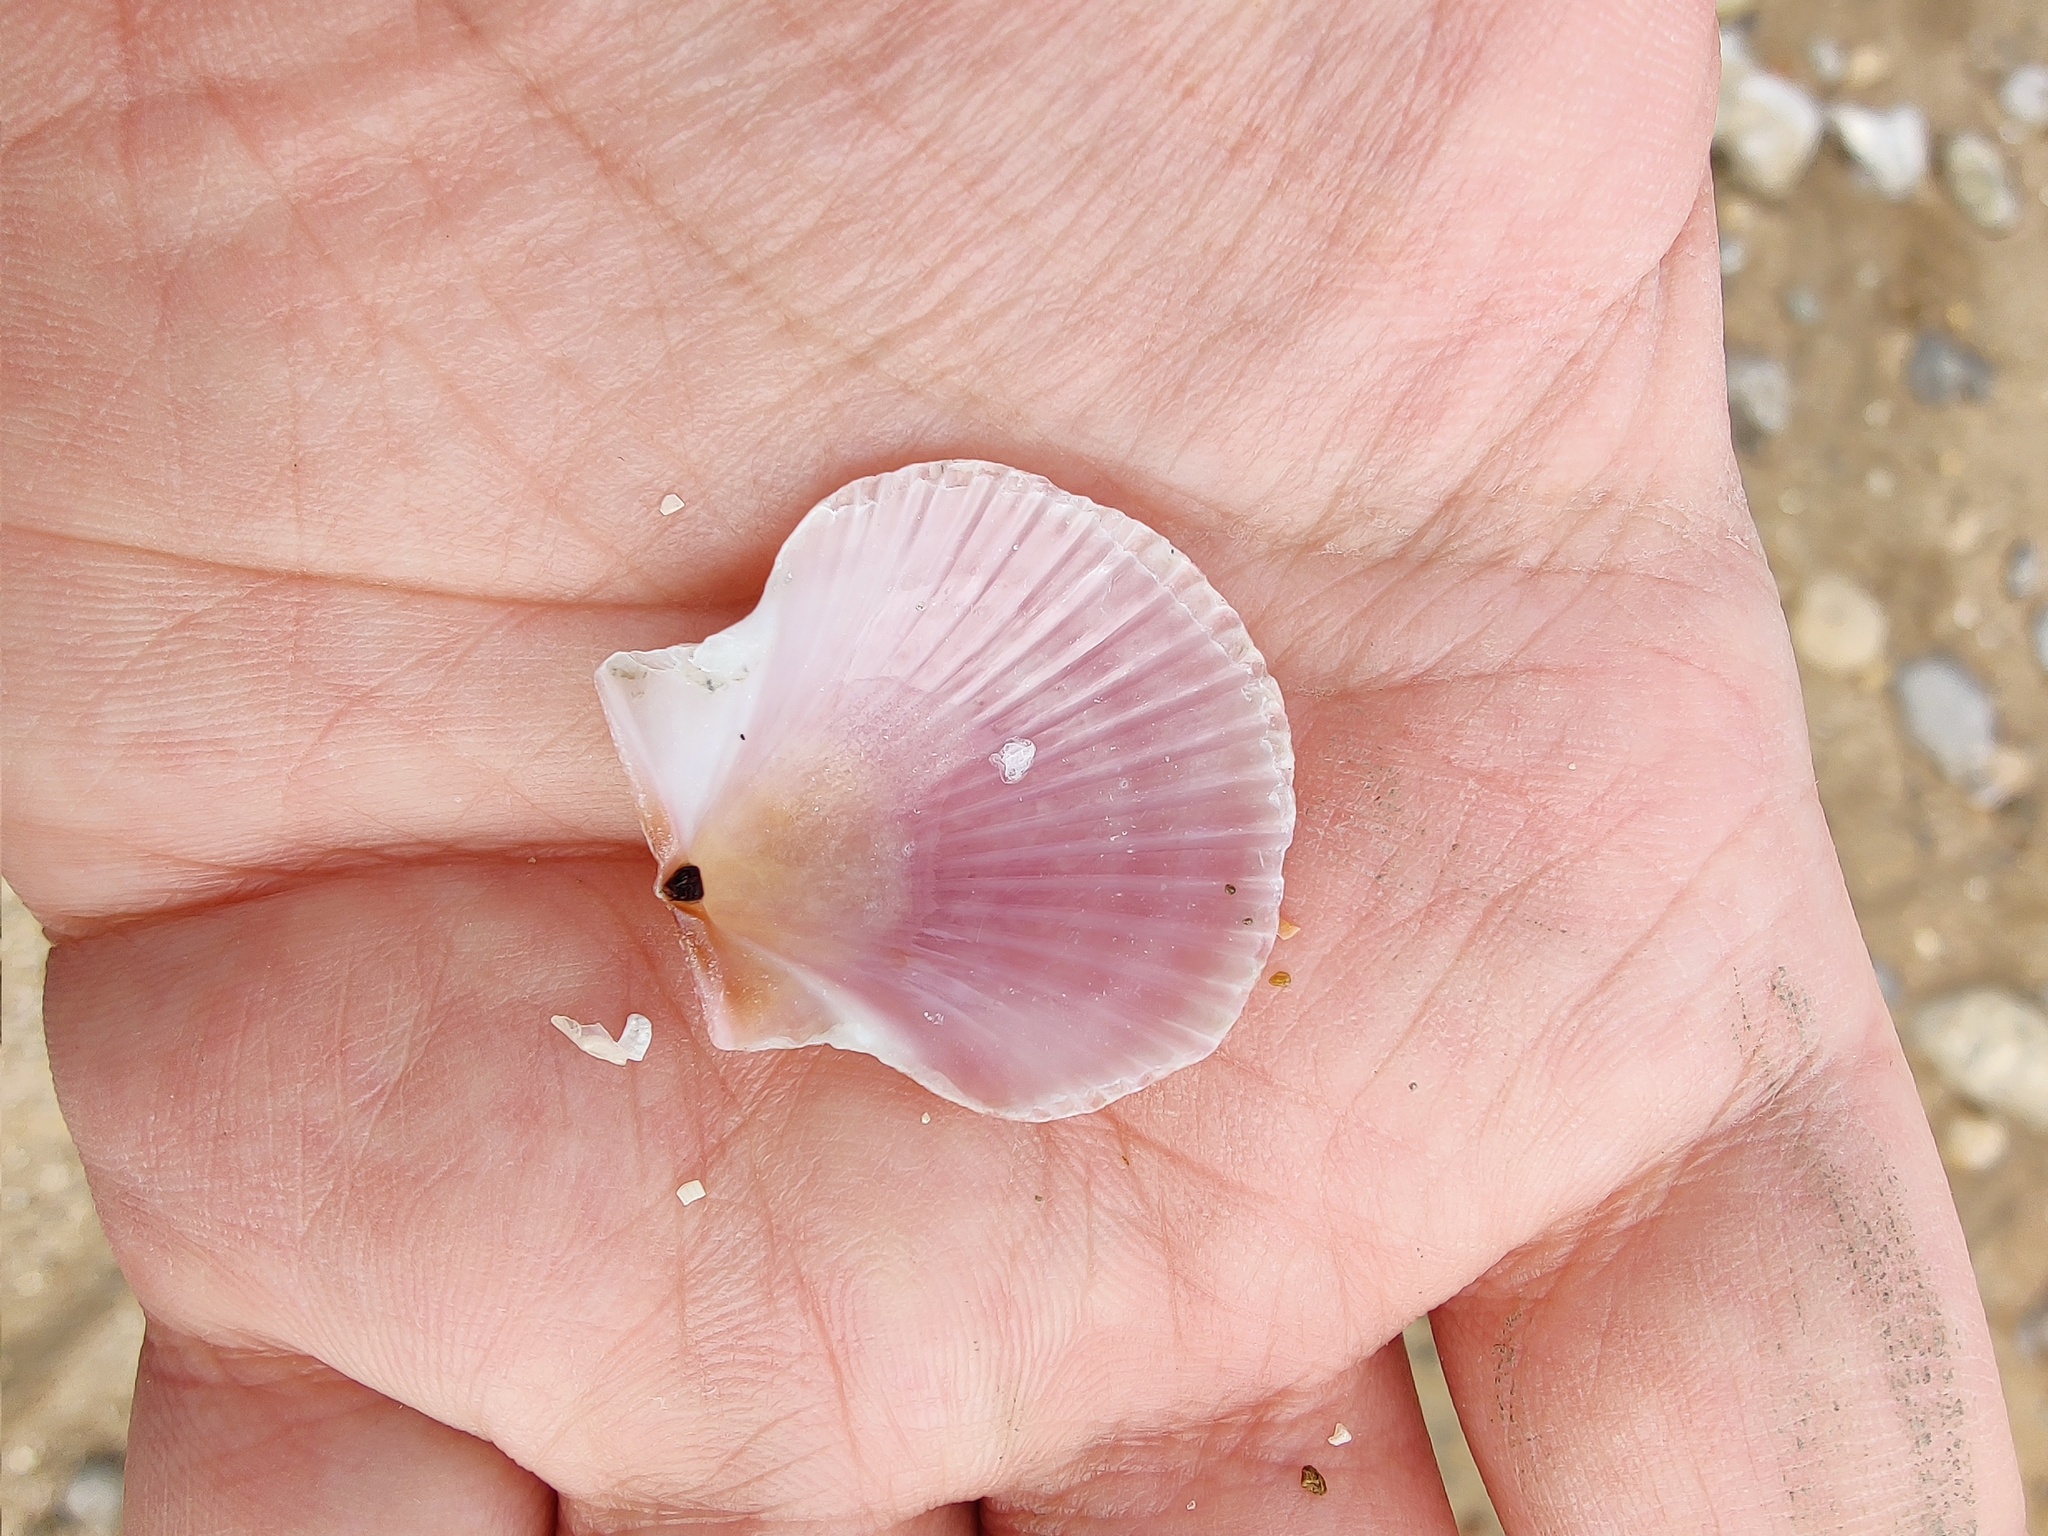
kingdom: Animalia
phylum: Mollusca
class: Bivalvia
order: Pectinida
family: Pectinidae
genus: Aequipecten
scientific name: Aequipecten opercularis
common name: Queen scallop
